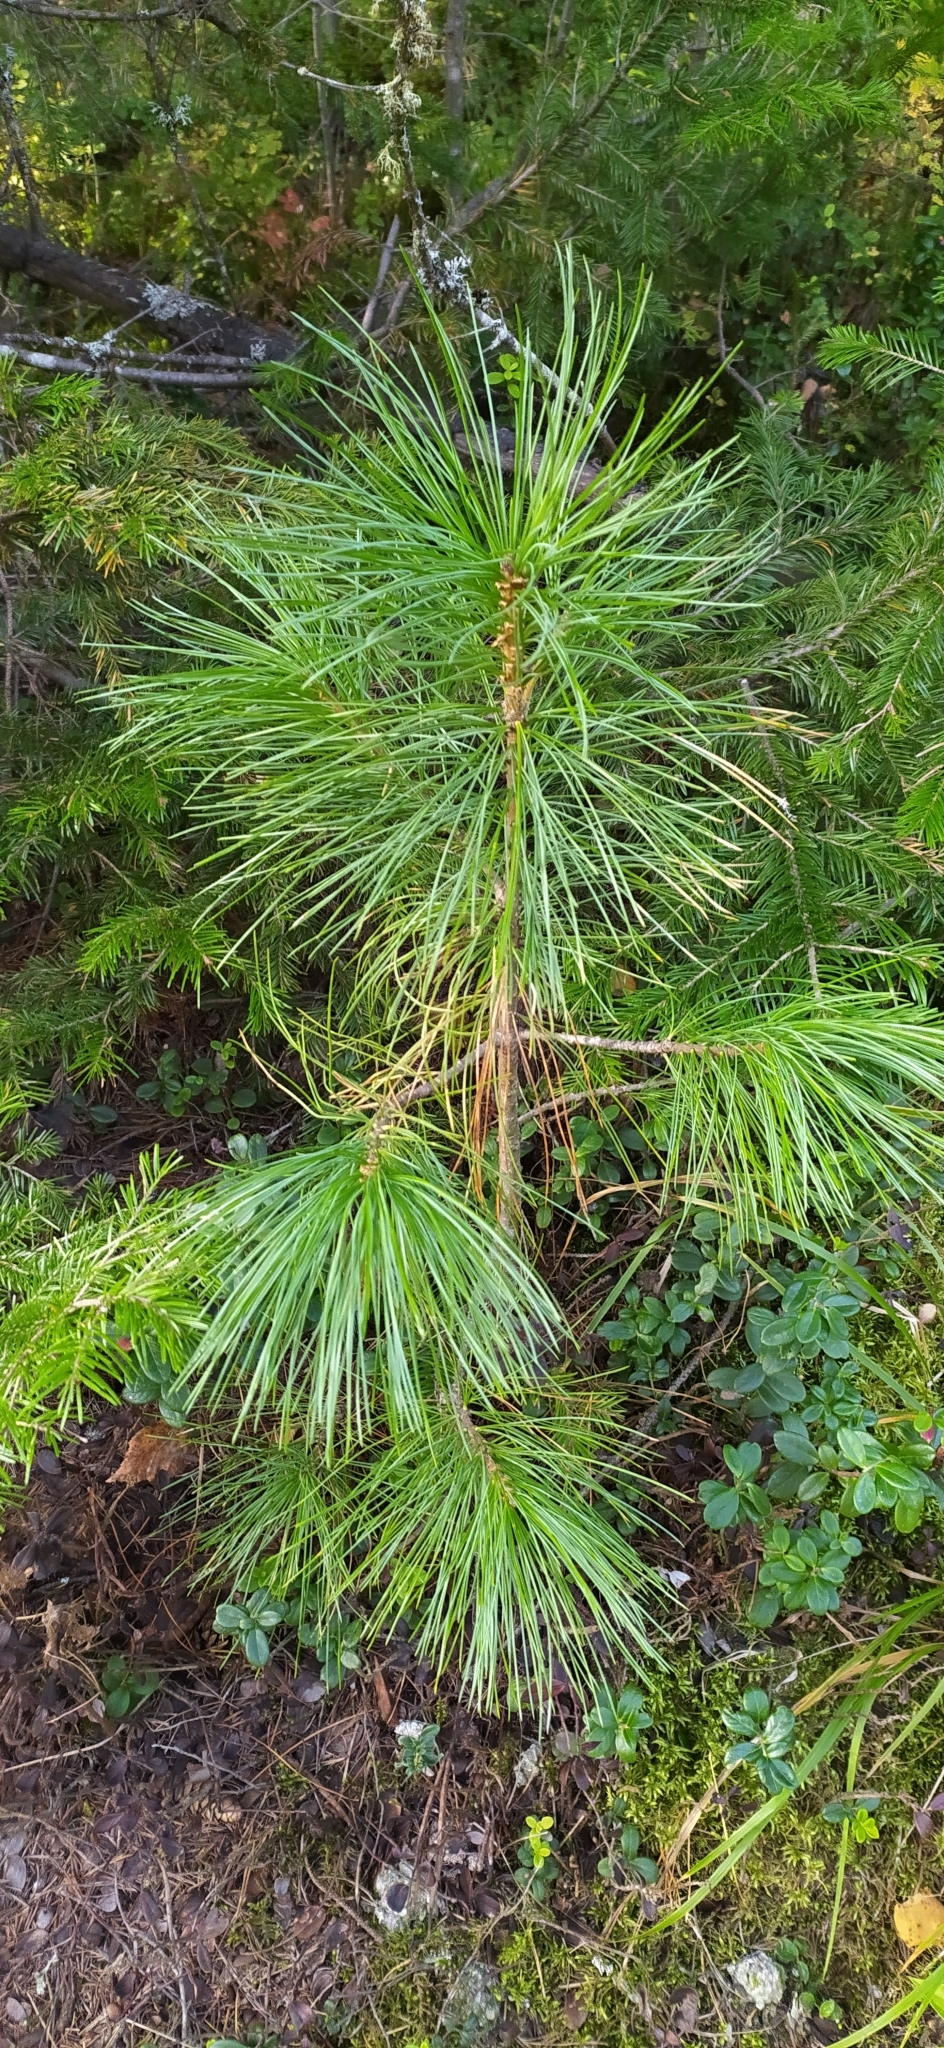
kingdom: Plantae
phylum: Tracheophyta
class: Pinopsida
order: Pinales
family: Pinaceae
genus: Pinus
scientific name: Pinus sibirica
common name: Siberian pine
